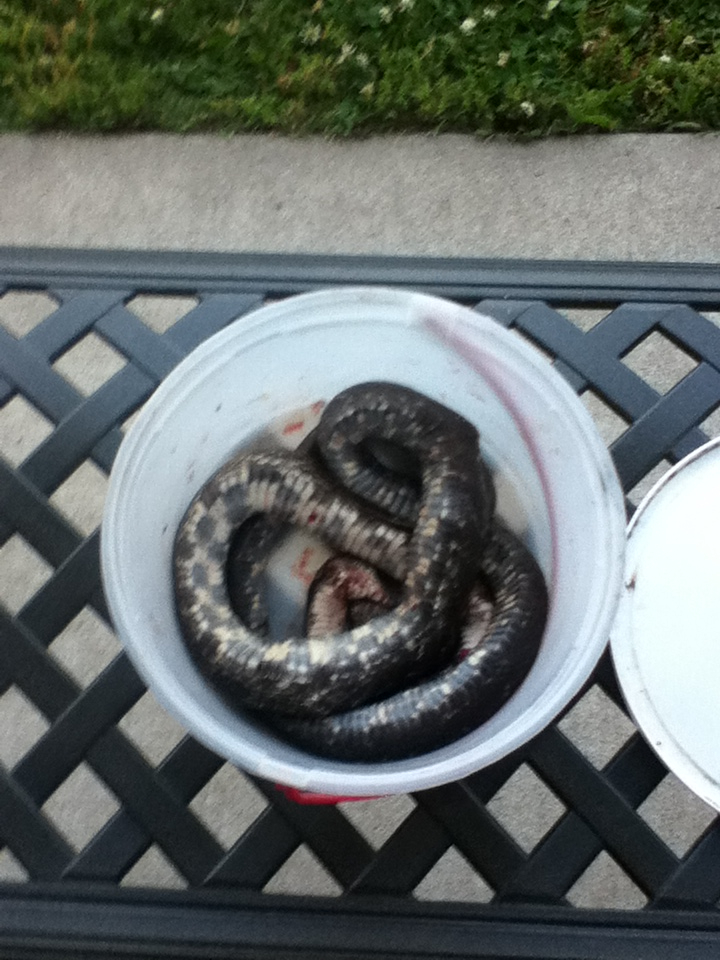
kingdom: Animalia
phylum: Chordata
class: Squamata
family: Colubridae
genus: Pantherophis
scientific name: Pantherophis spiloides
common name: Gray rat snake
